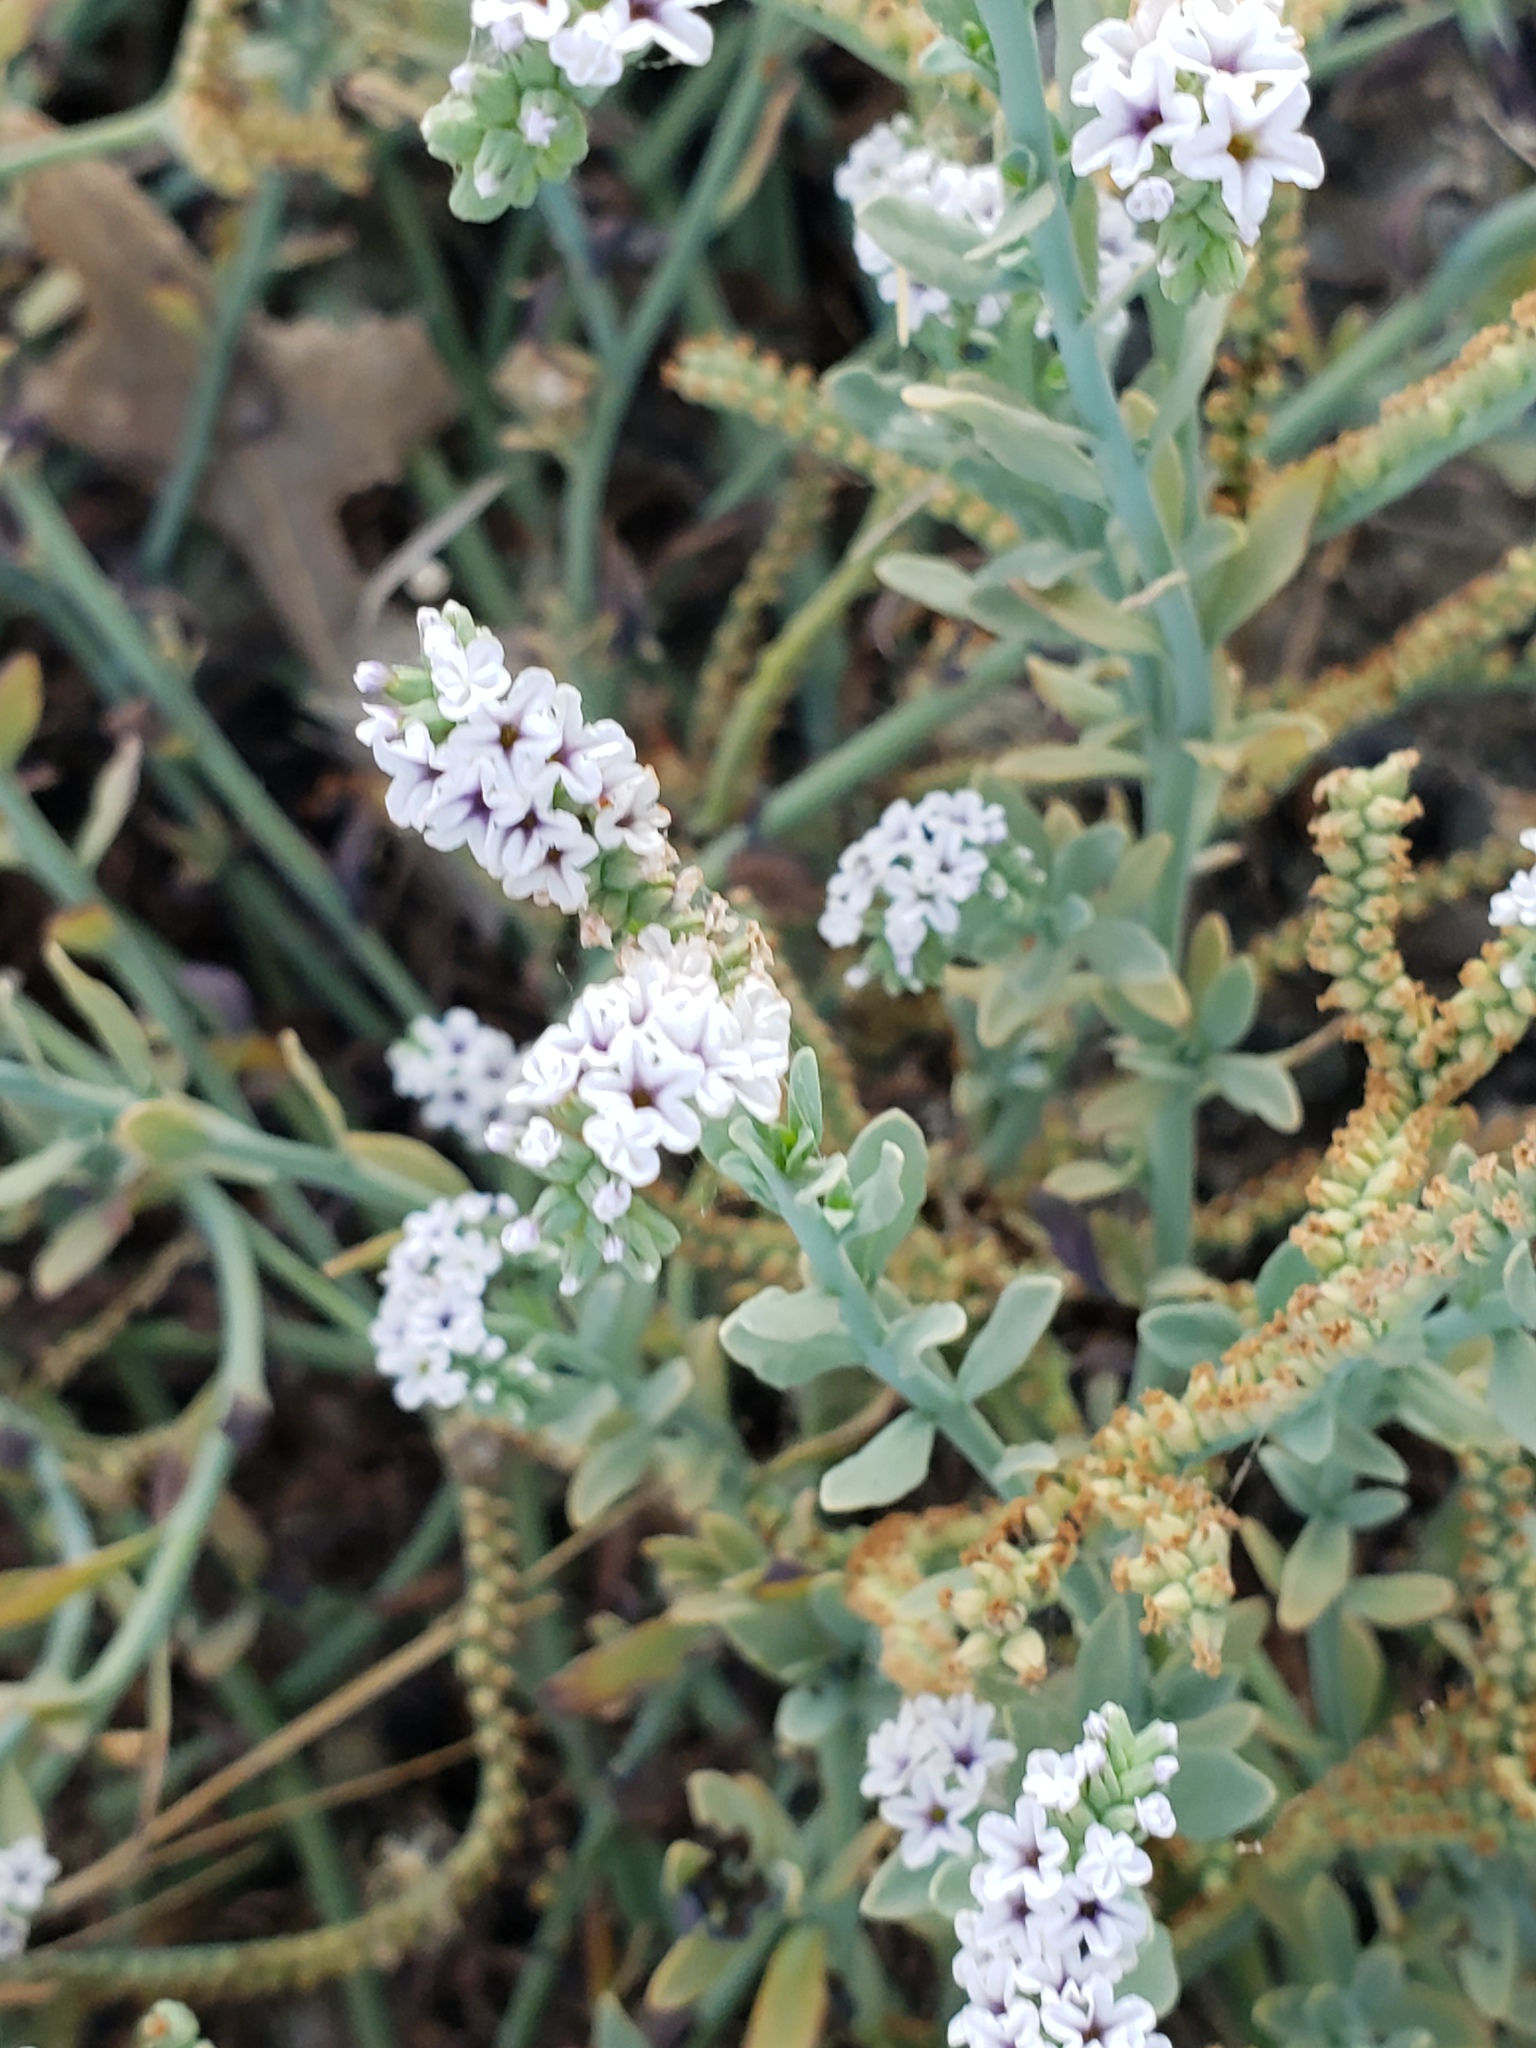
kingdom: Plantae
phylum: Tracheophyta
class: Magnoliopsida
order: Boraginales
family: Heliotropiaceae
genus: Heliotropium
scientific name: Heliotropium curassavicum
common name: Seaside heliotrope
